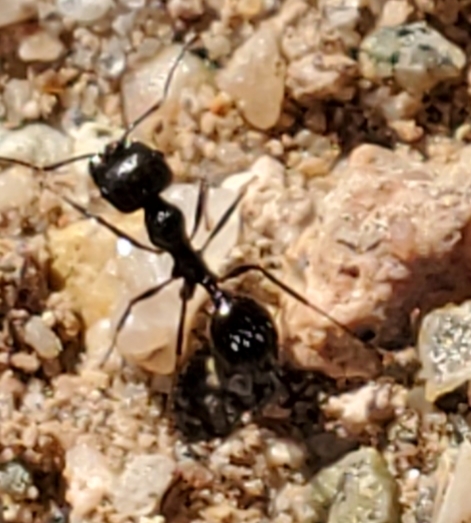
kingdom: Animalia
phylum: Arthropoda
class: Insecta
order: Hymenoptera
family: Formicidae
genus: Messor
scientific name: Messor pergandei
